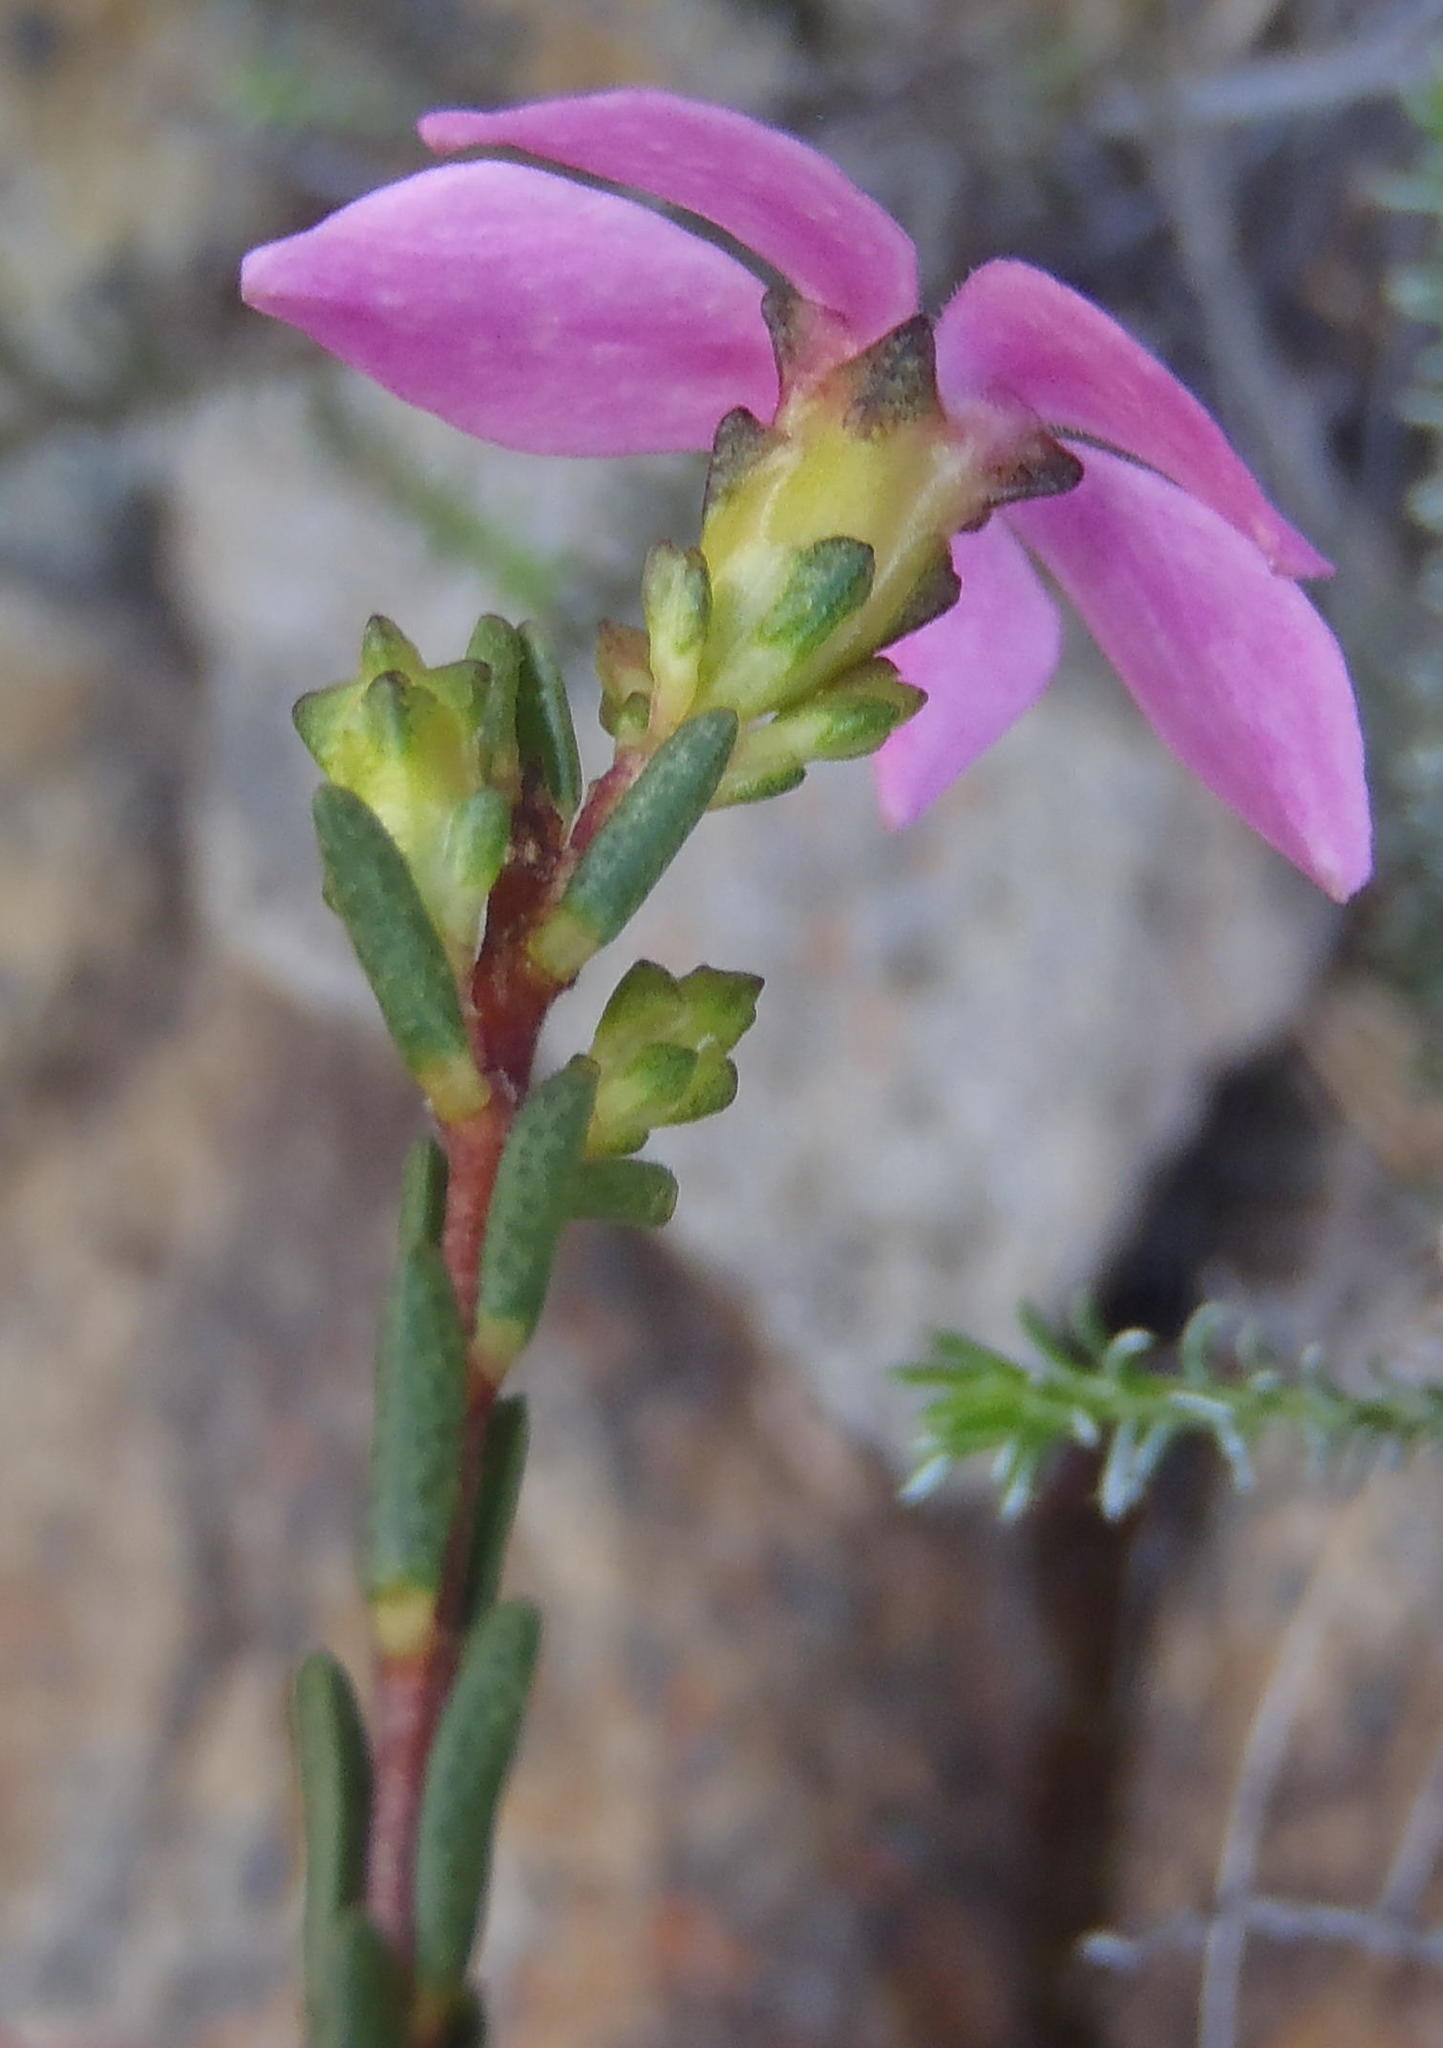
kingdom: Plantae
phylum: Tracheophyta
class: Magnoliopsida
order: Sapindales
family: Rutaceae
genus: Acmadenia
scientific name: Acmadenia sheilae
